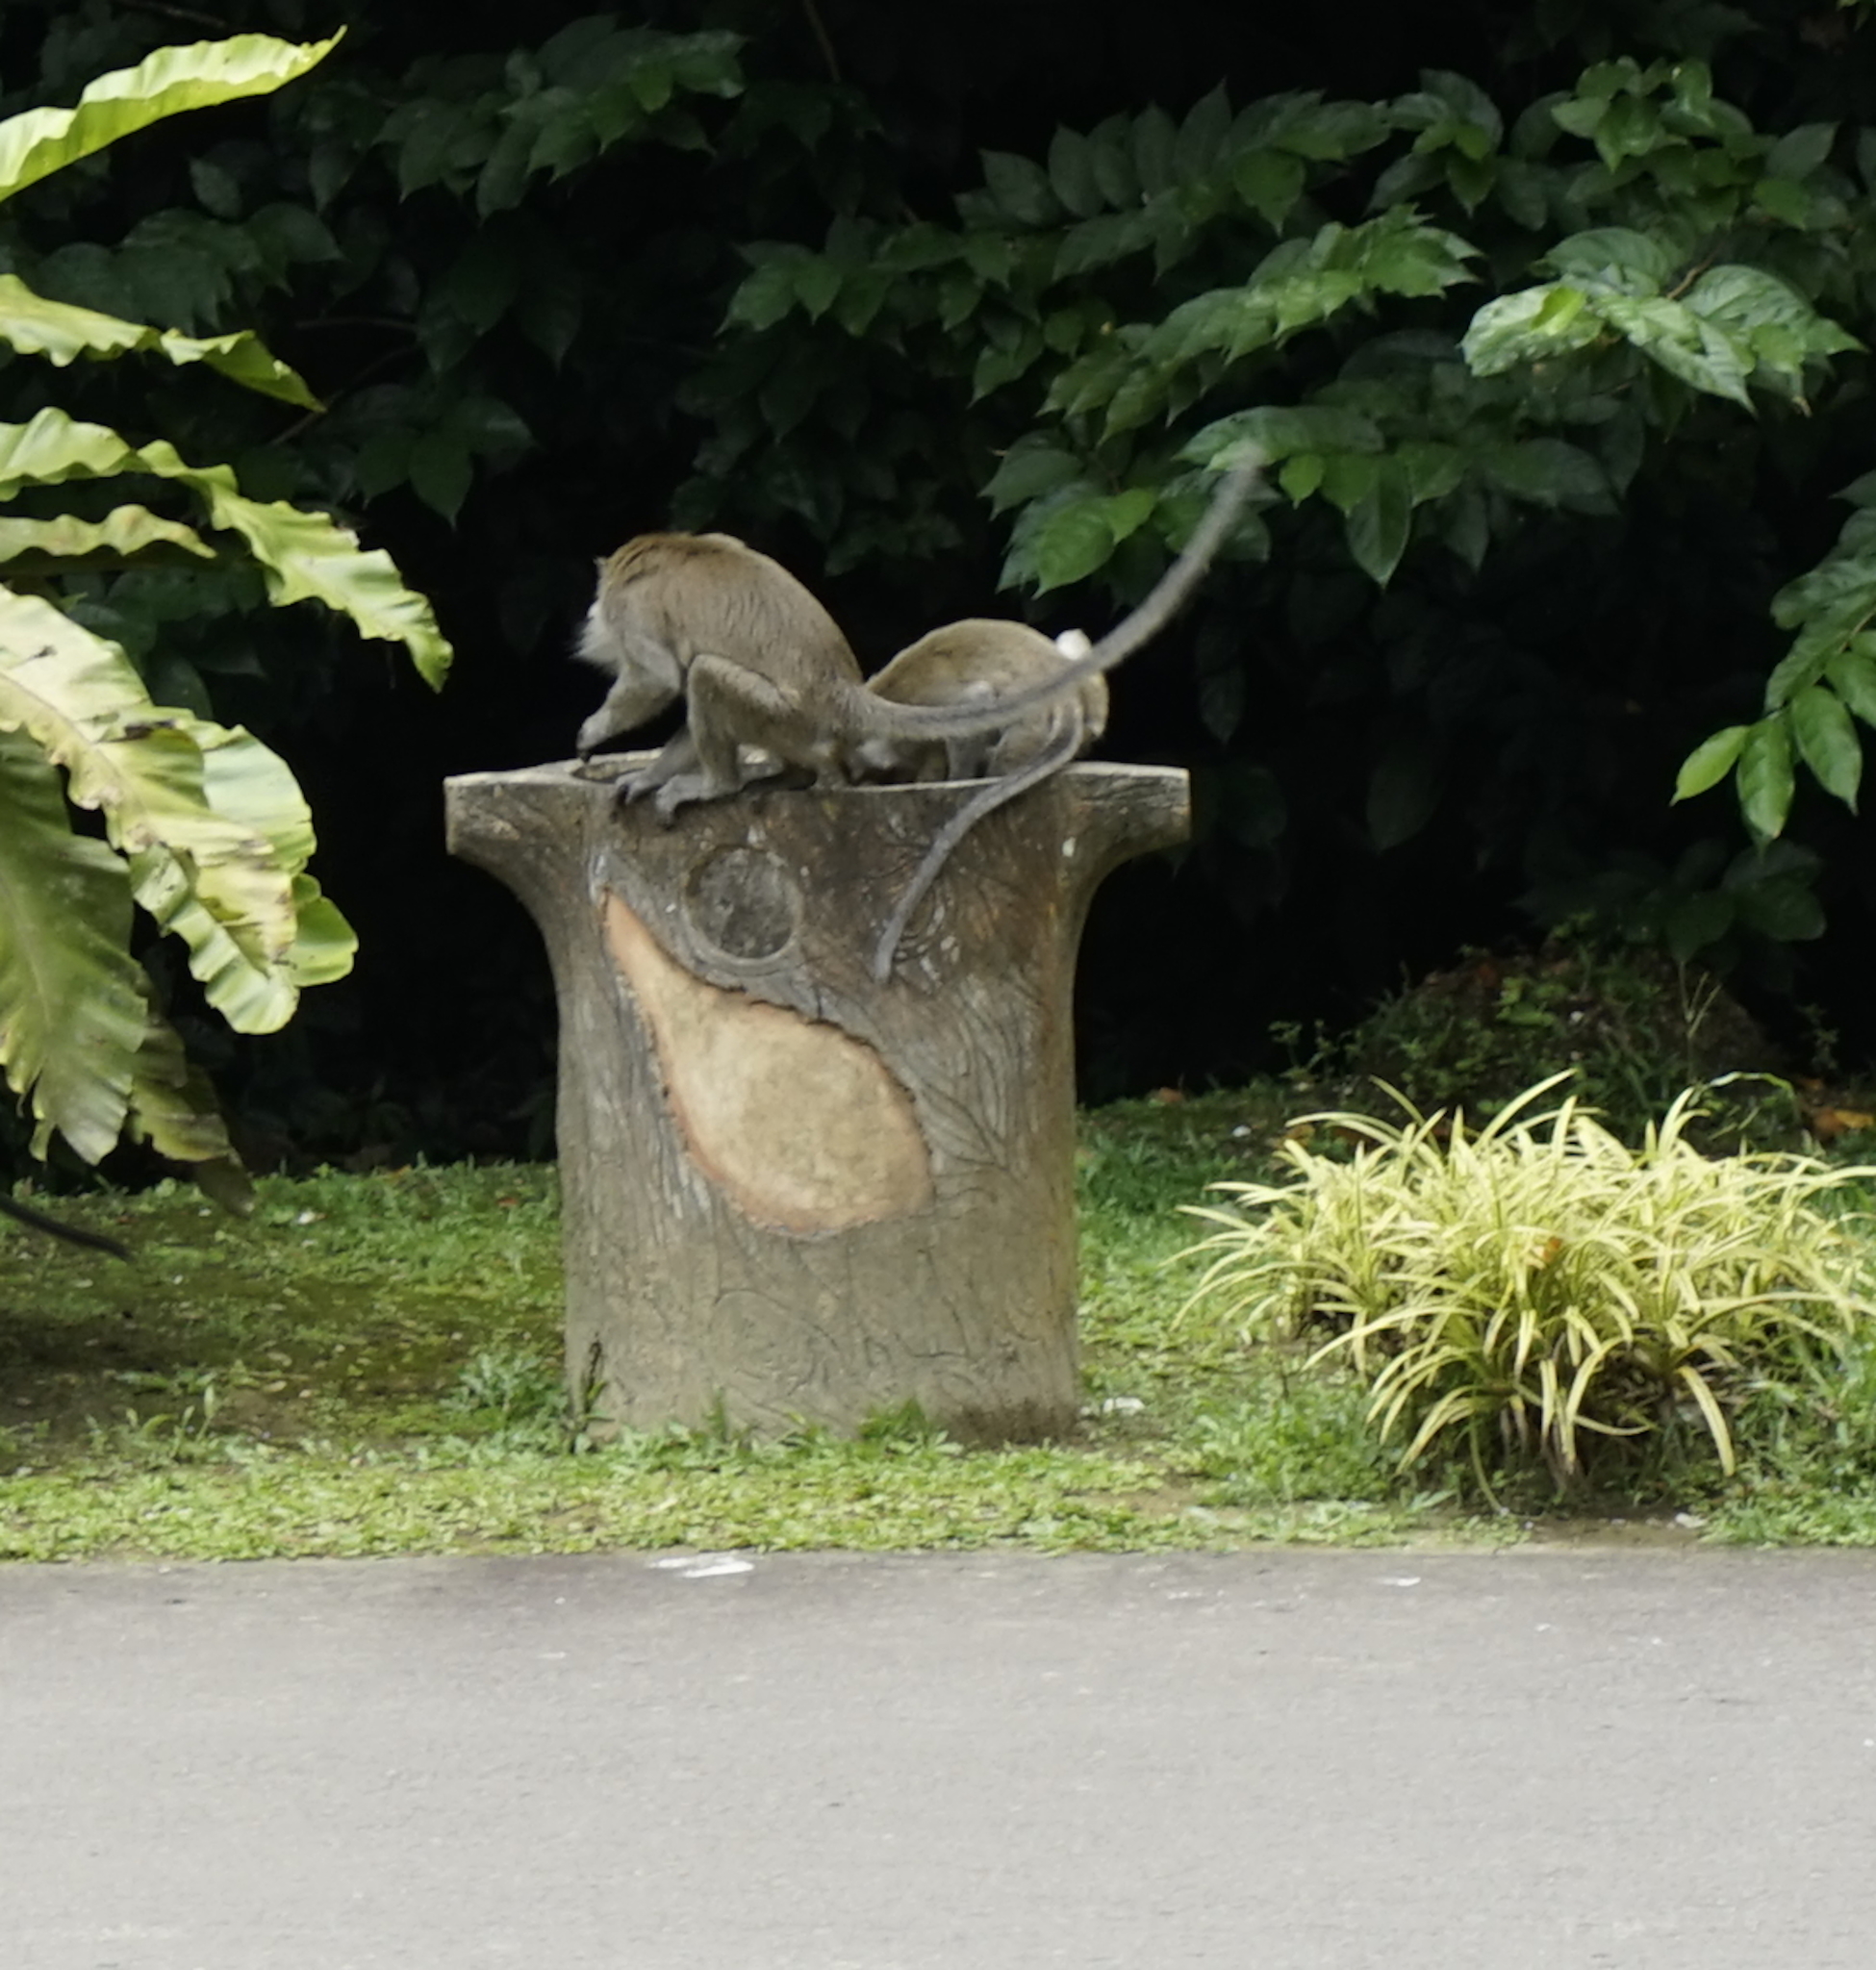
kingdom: Animalia
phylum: Chordata
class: Mammalia
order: Primates
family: Cercopithecidae
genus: Macaca
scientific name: Macaca fascicularis
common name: Crab-eating macaque
